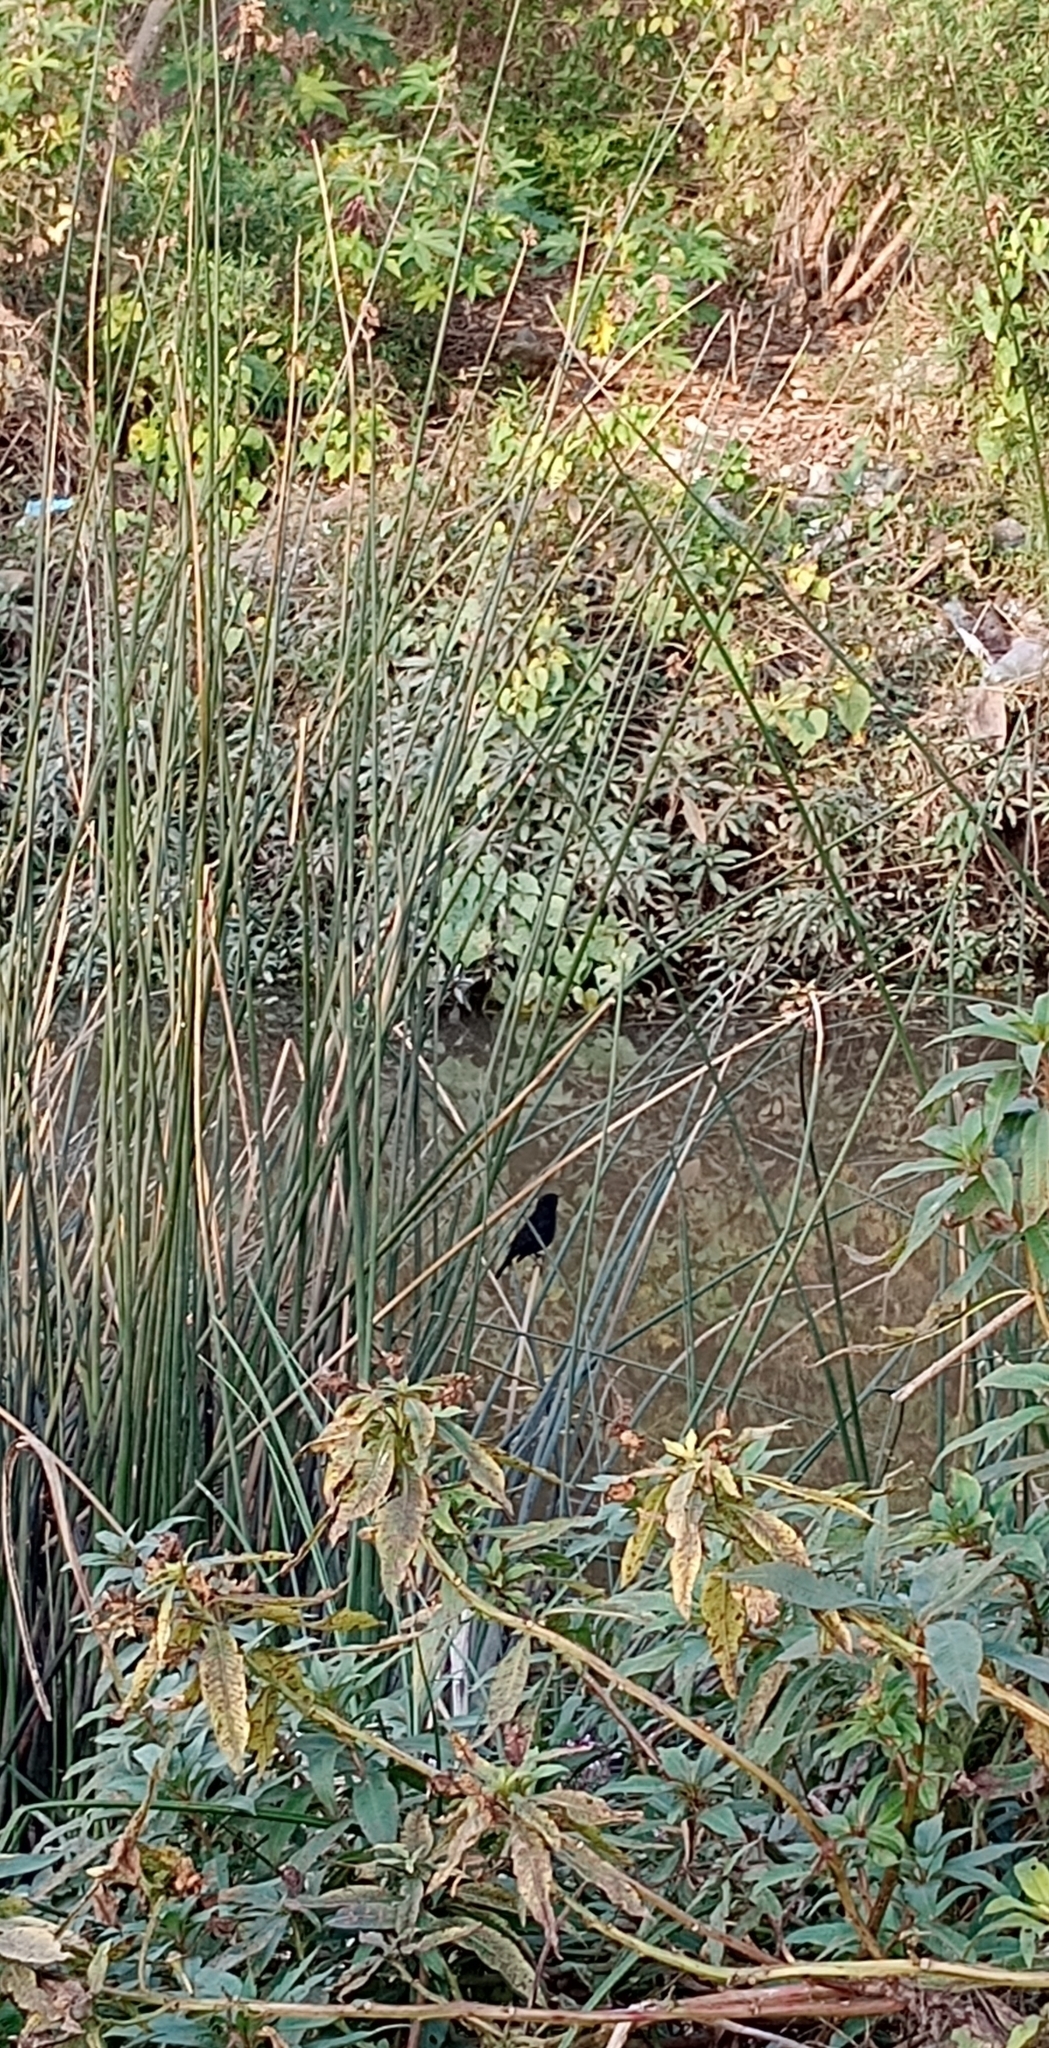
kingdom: Animalia
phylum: Chordata
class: Aves
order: Passeriformes
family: Icteridae
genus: Agelasticus
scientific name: Agelasticus thilius
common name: Yellow-winged blackbird
